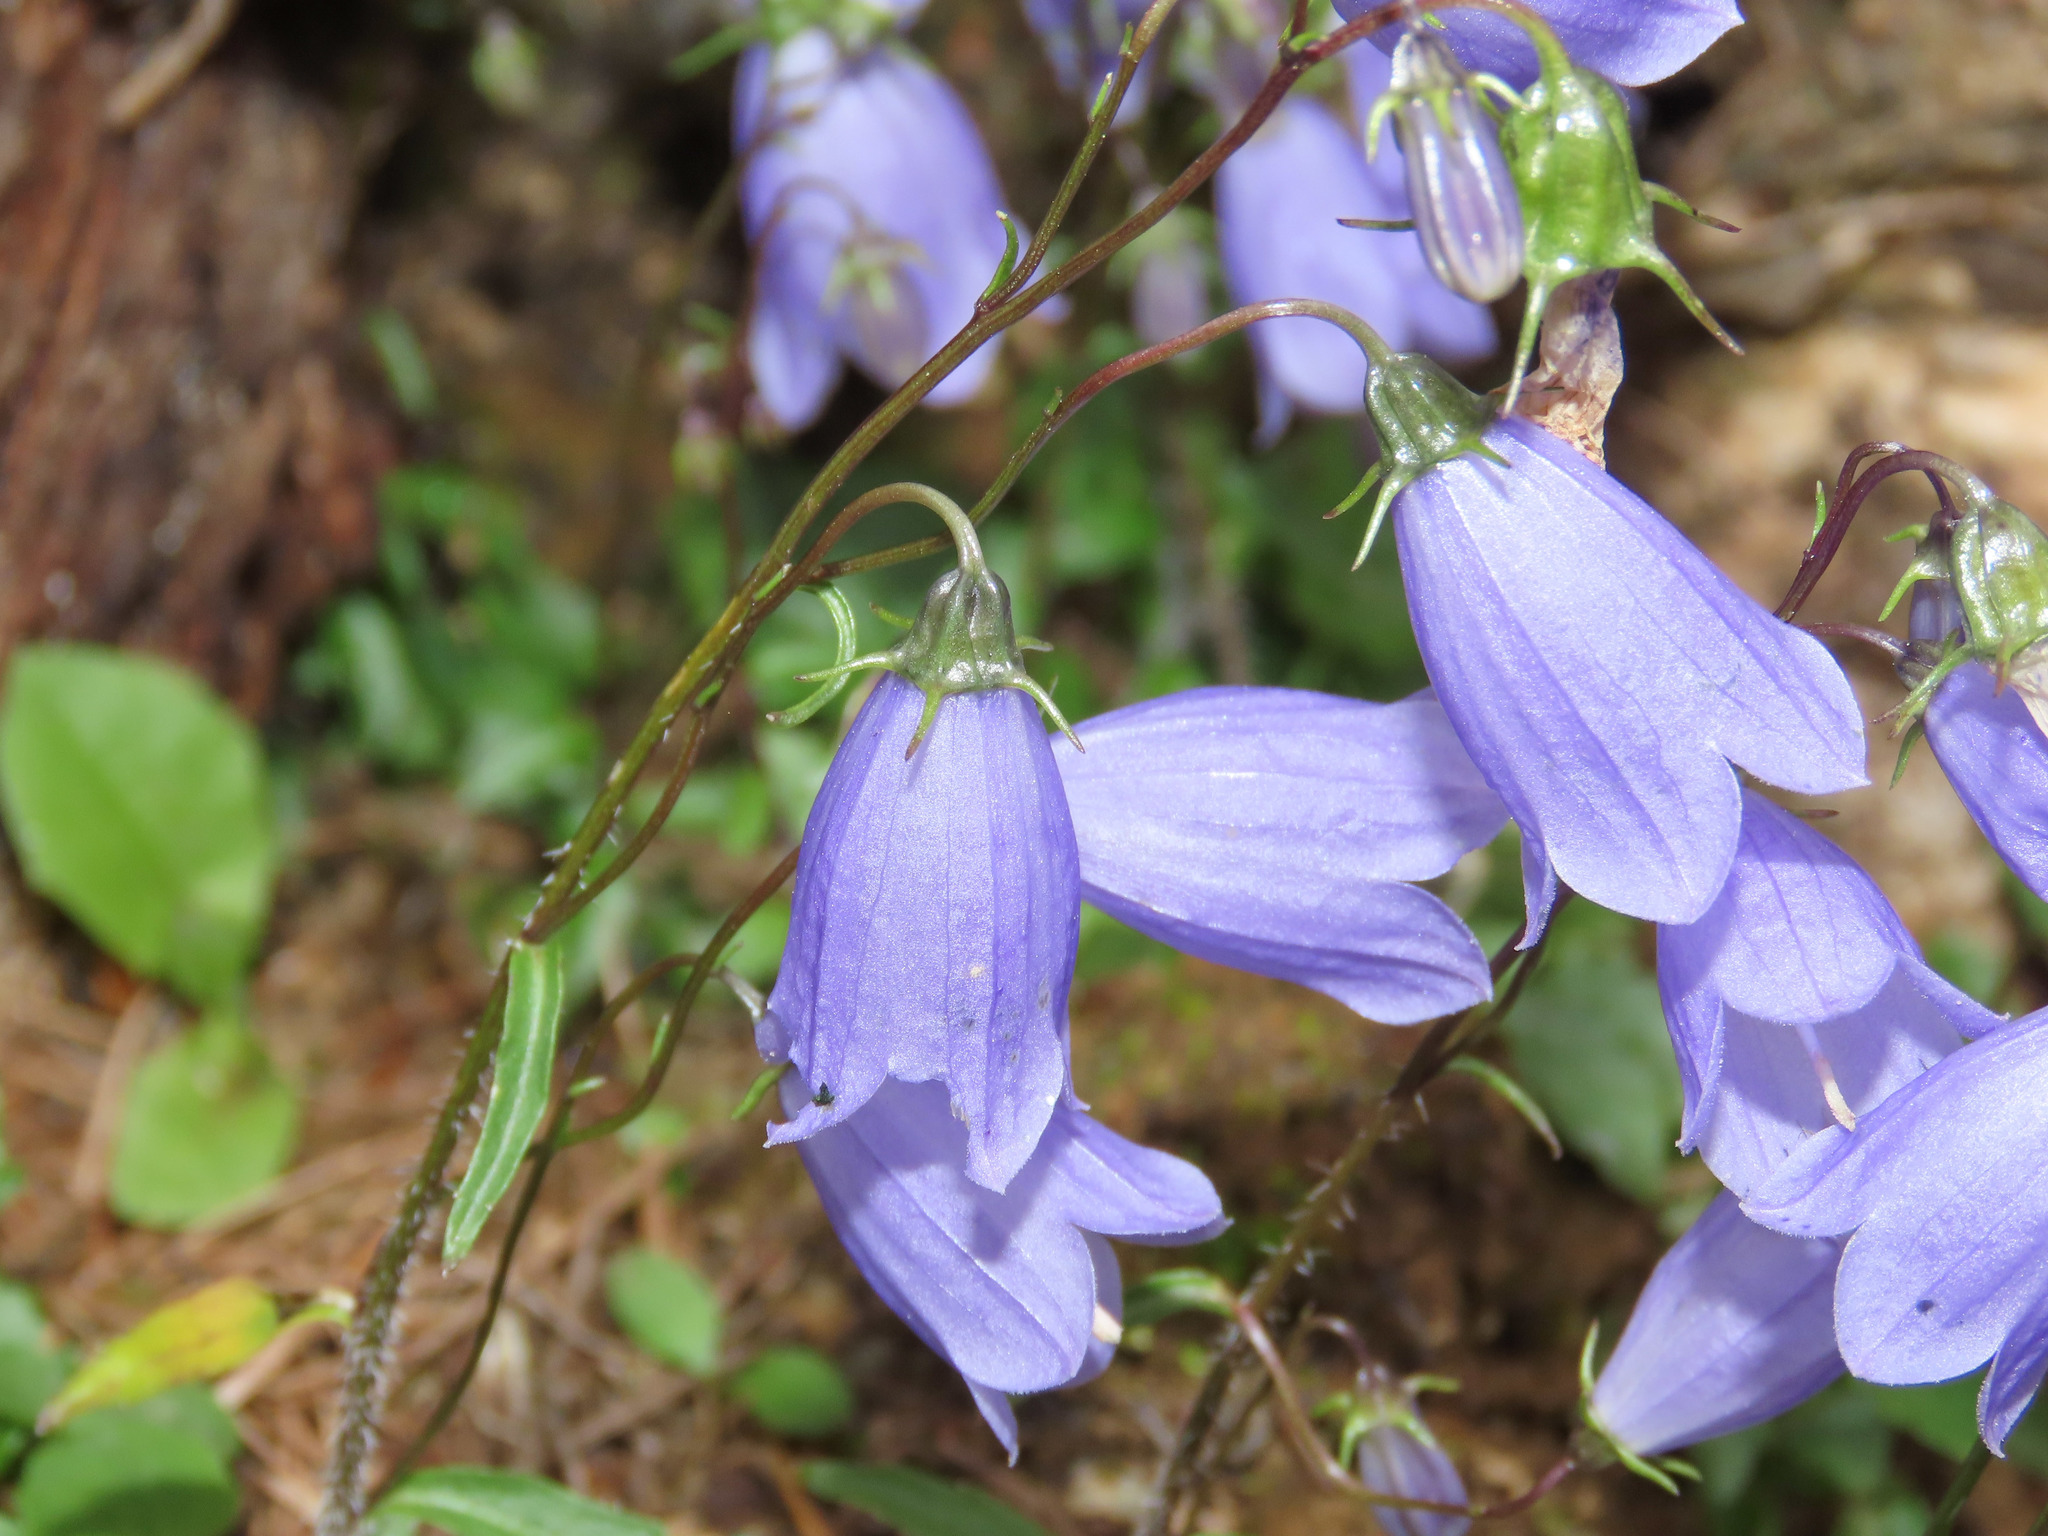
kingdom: Plantae
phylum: Tracheophyta
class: Magnoliopsida
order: Asterales
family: Campanulaceae
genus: Campanula
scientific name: Campanula cochleariifolia
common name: Fairies'-thimbles
